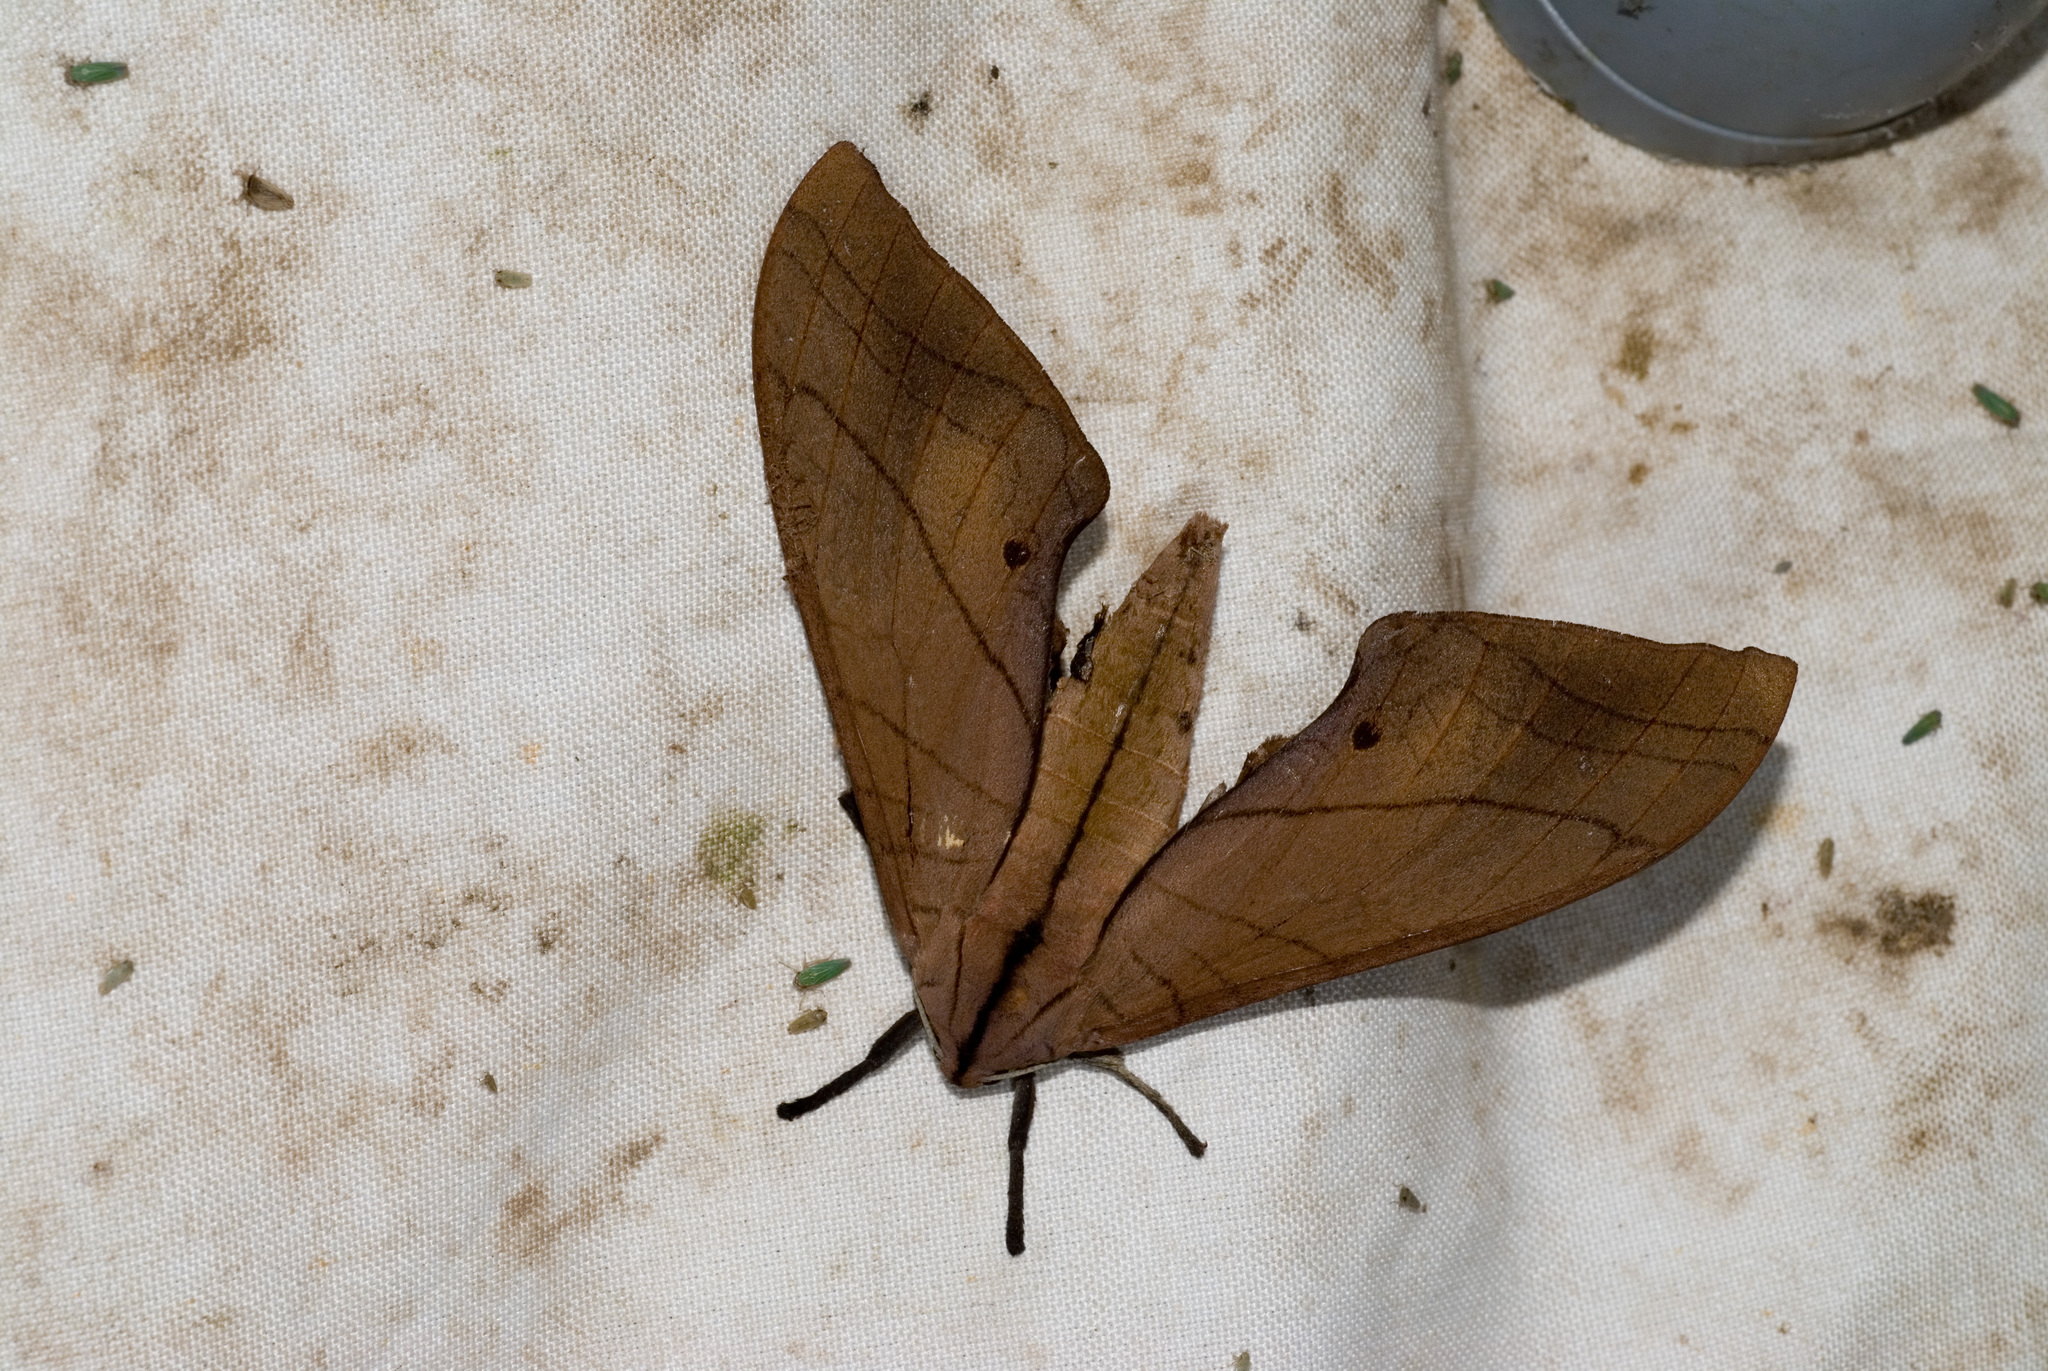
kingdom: Animalia
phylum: Arthropoda
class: Insecta
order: Lepidoptera
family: Sphingidae
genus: Marumba
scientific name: Marumba cristata
